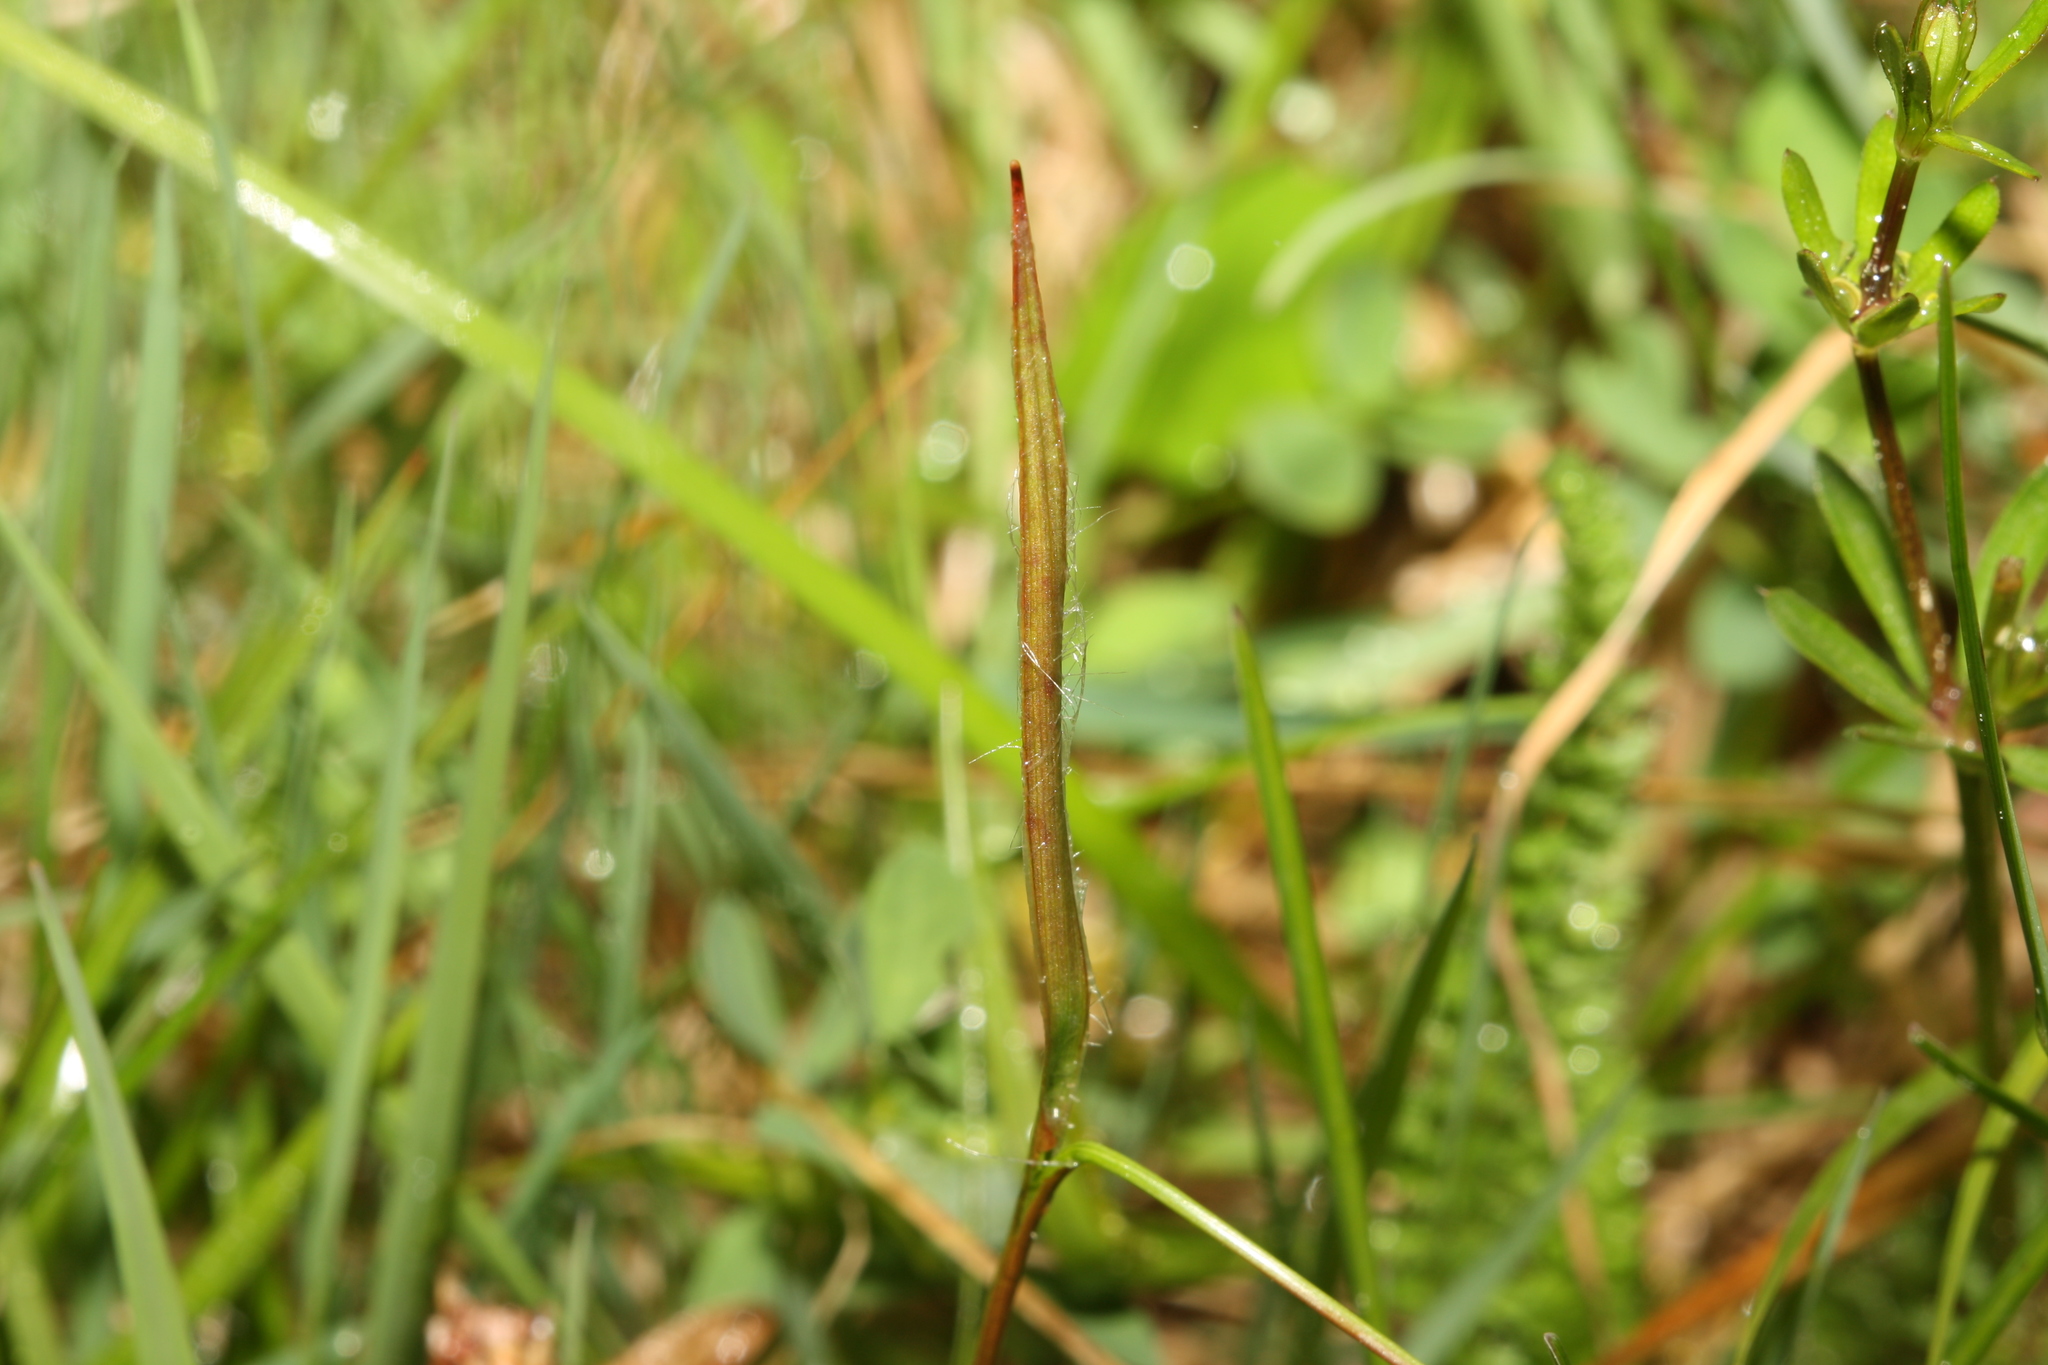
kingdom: Plantae
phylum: Tracheophyta
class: Liliopsida
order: Poales
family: Juncaceae
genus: Luzula
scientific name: Luzula campestris
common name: Field wood-rush
